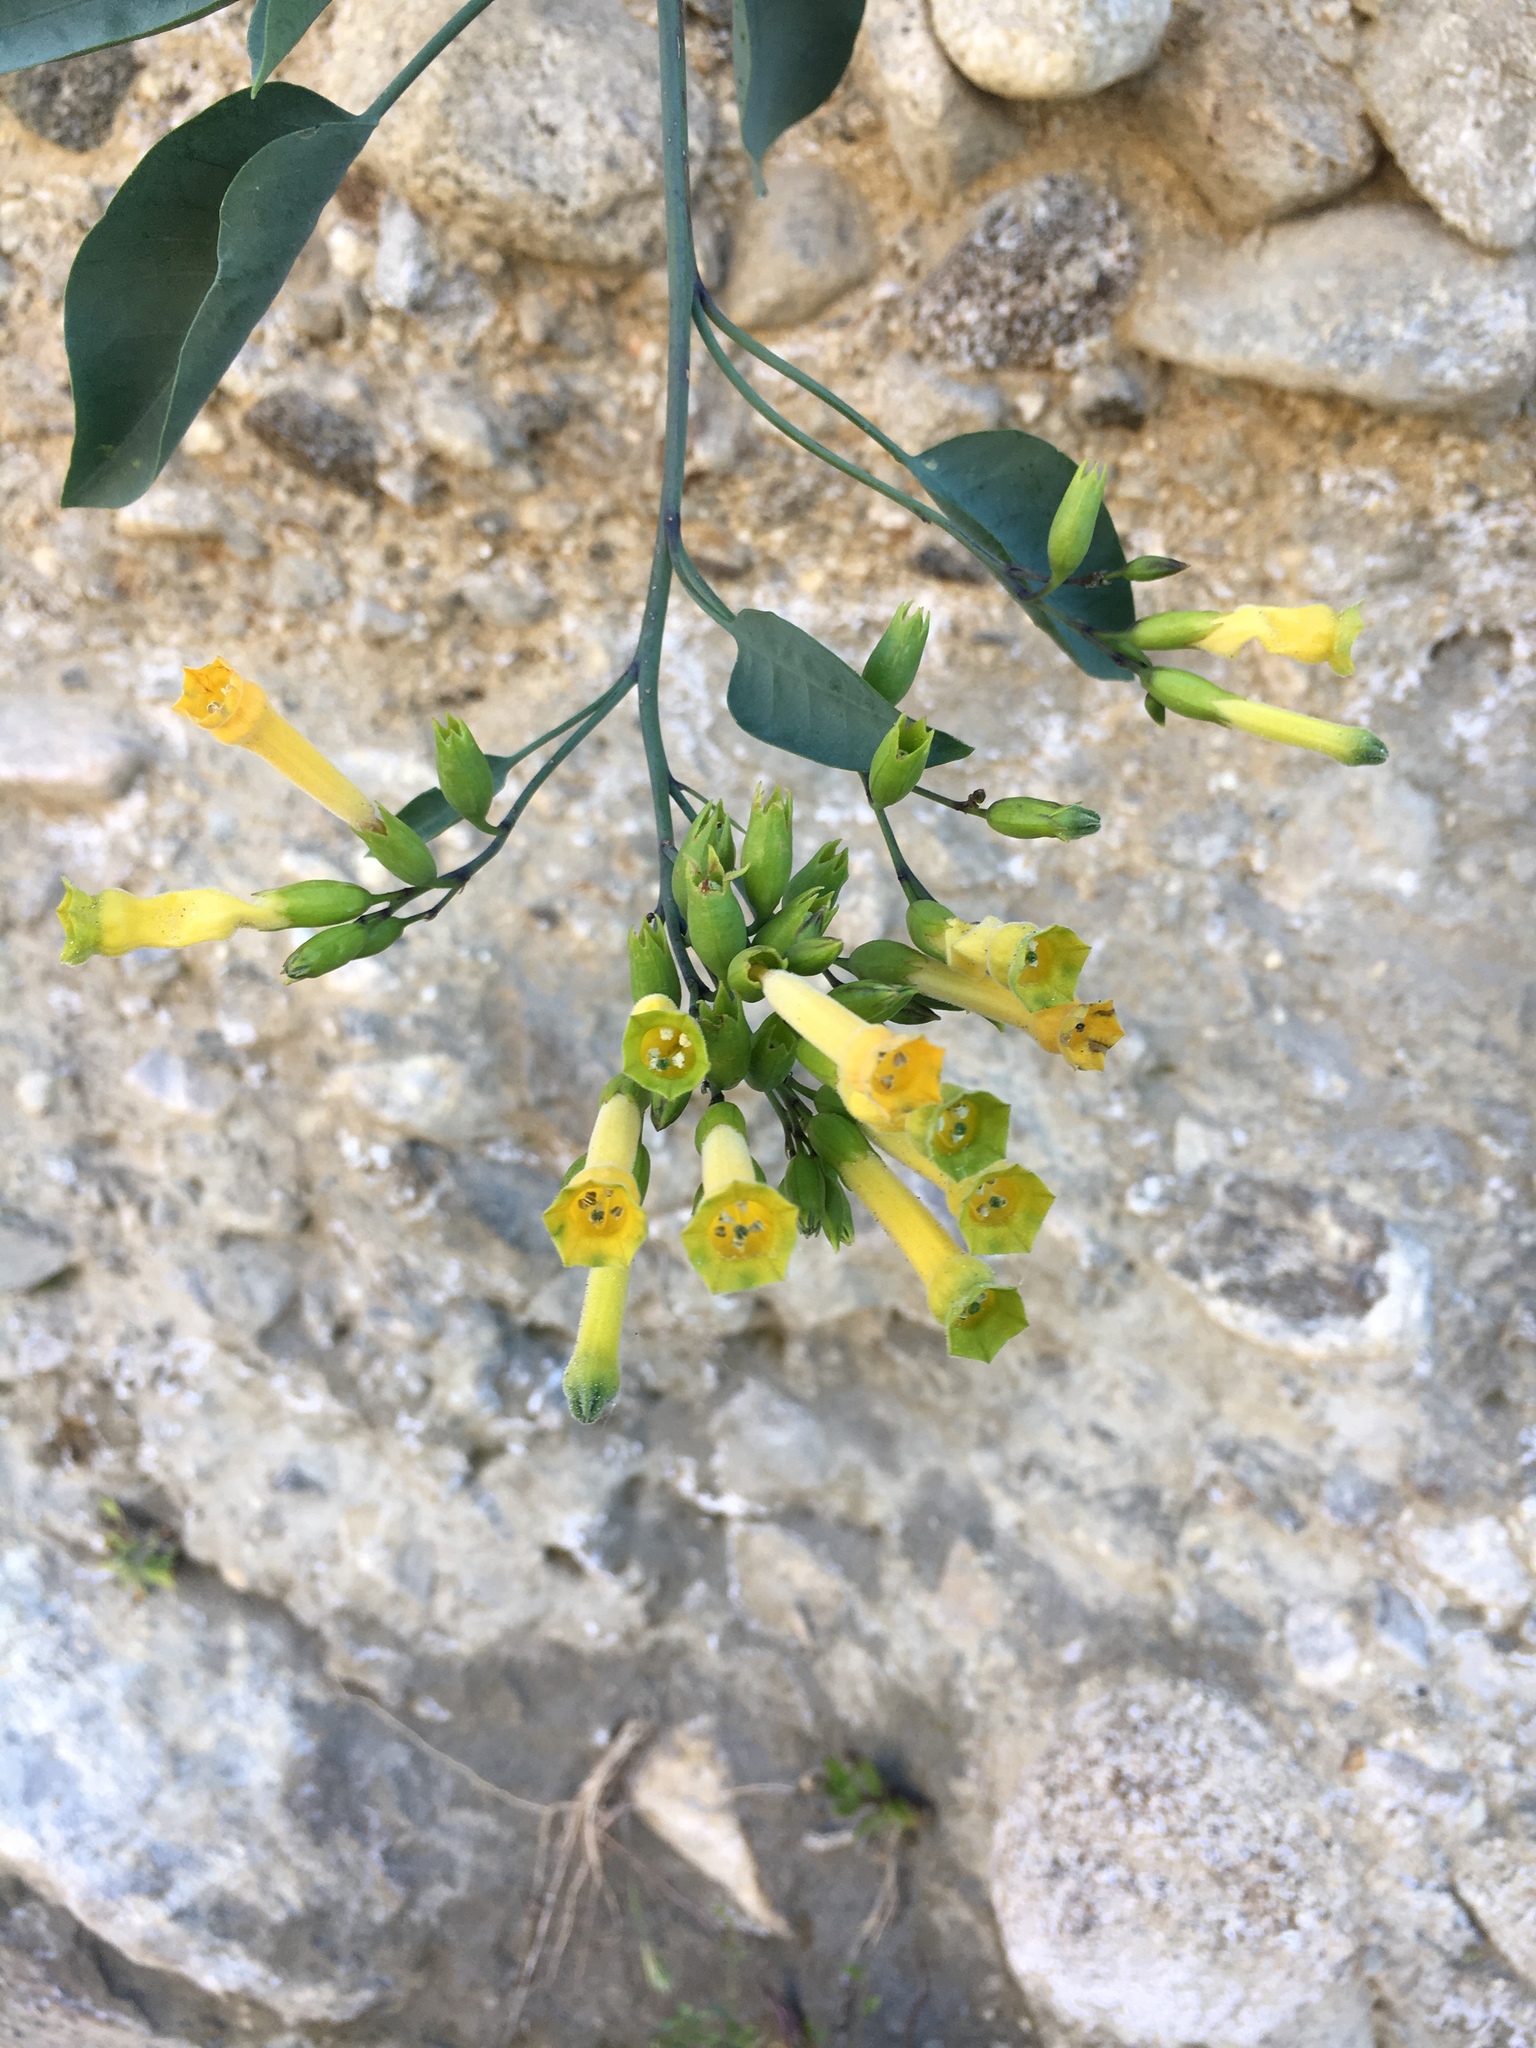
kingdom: Plantae
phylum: Tracheophyta
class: Magnoliopsida
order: Solanales
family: Solanaceae
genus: Nicotiana
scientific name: Nicotiana glauca
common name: Tree tobacco
